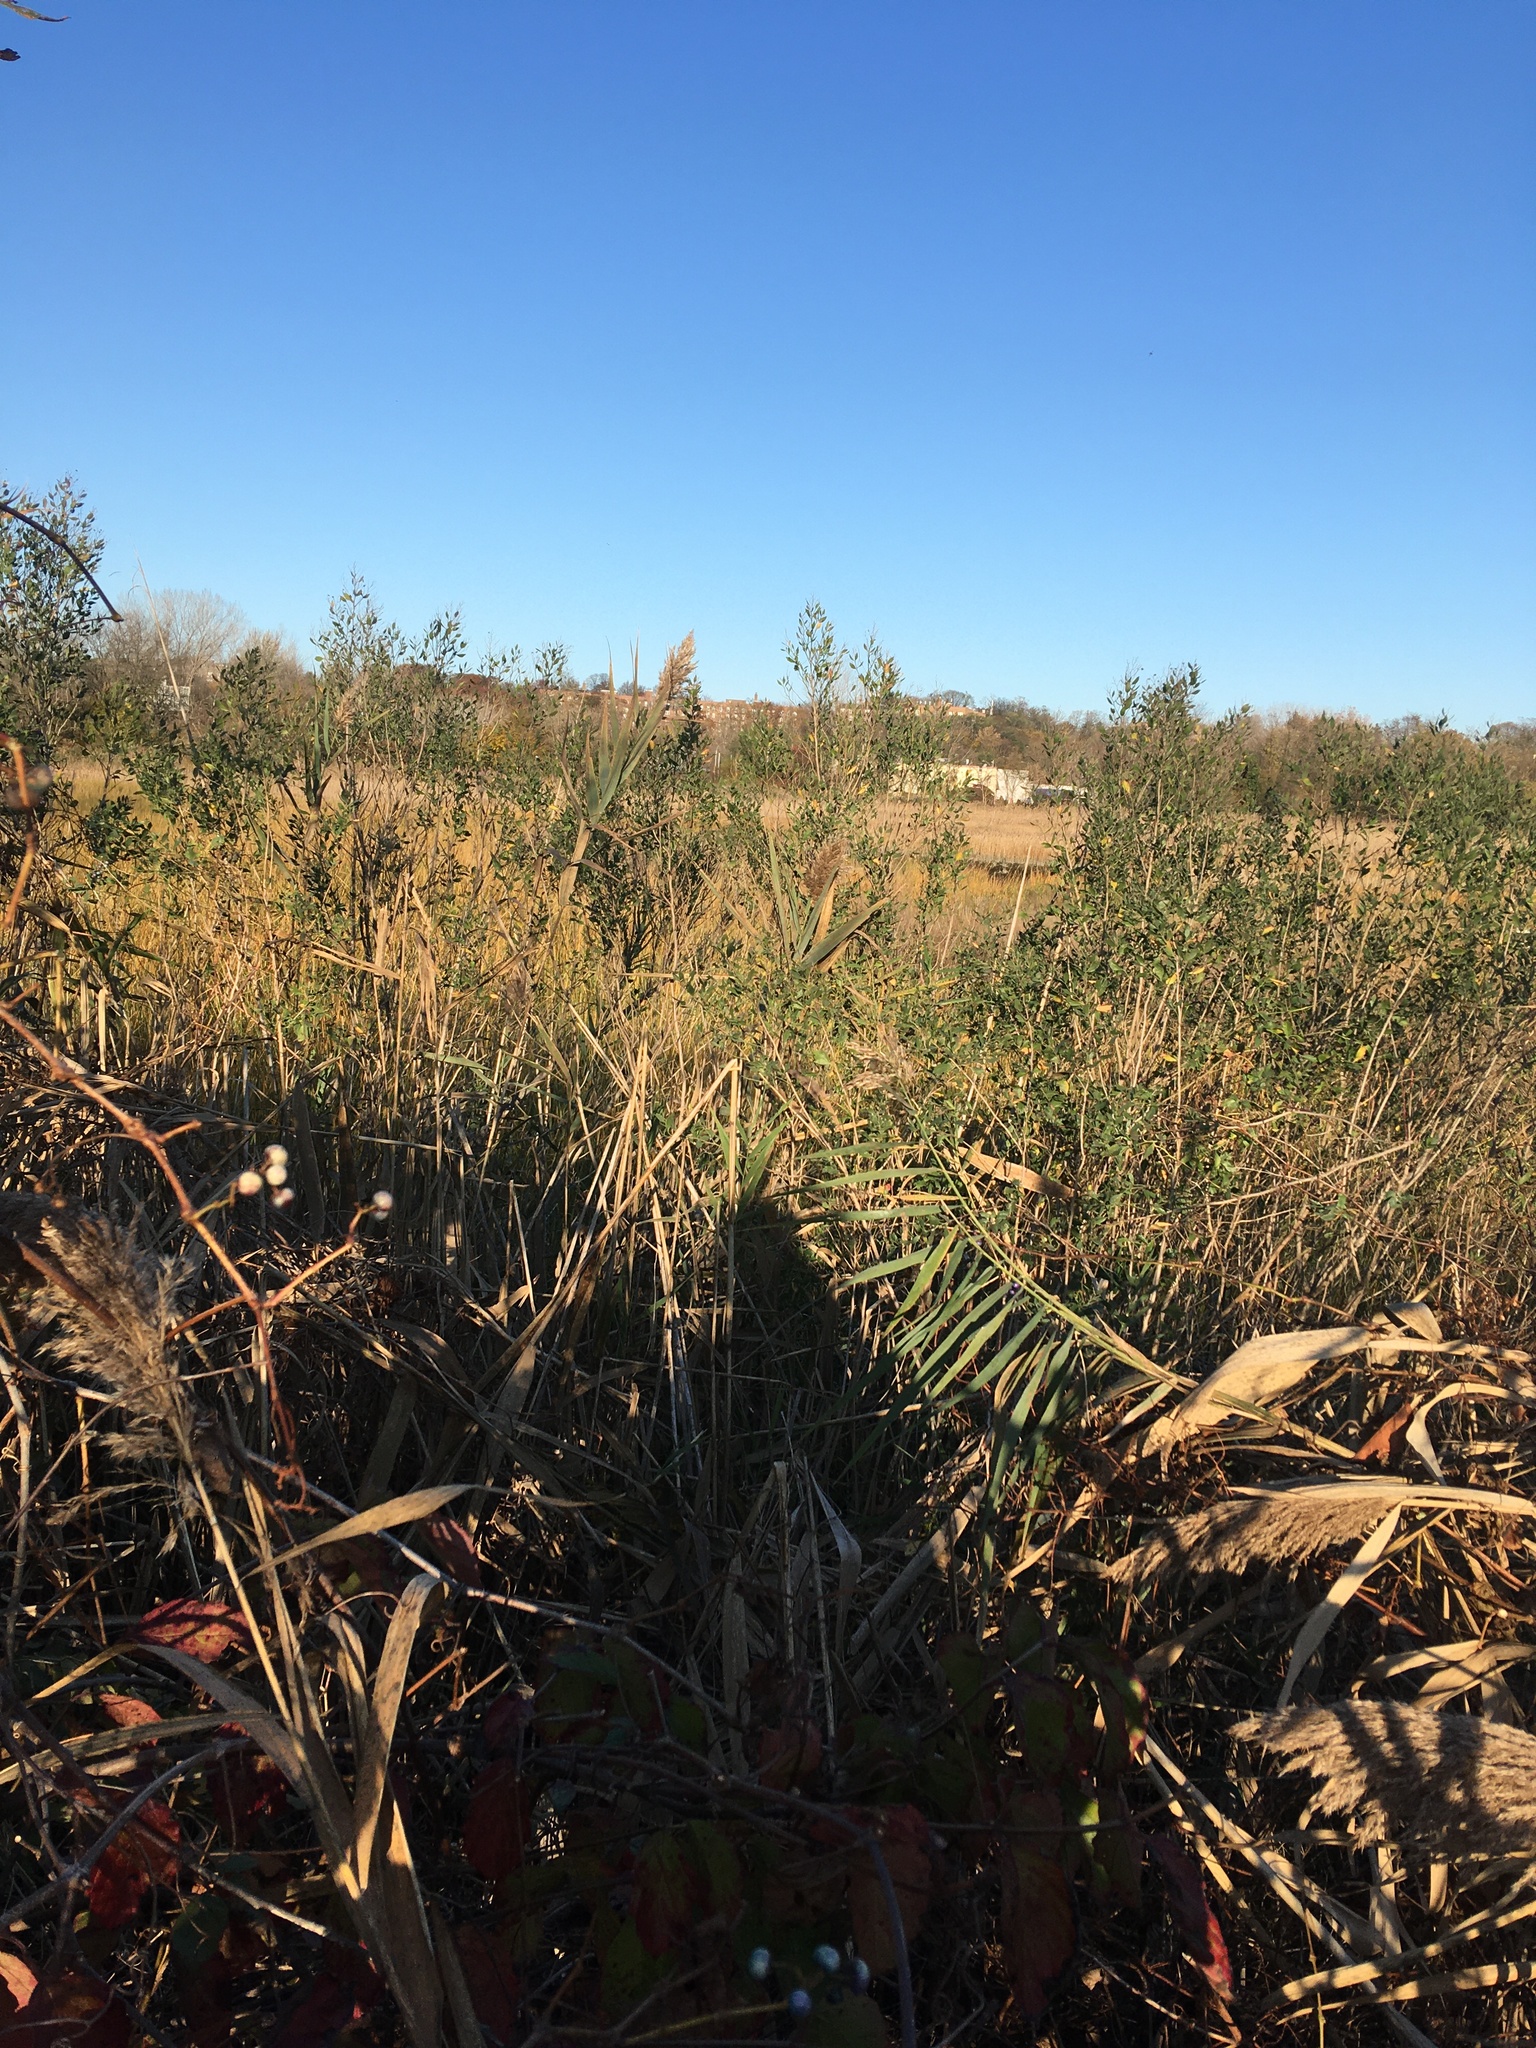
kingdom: Plantae
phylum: Tracheophyta
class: Magnoliopsida
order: Asterales
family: Asteraceae
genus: Baccharis
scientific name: Baccharis halimifolia
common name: Eastern baccharis
